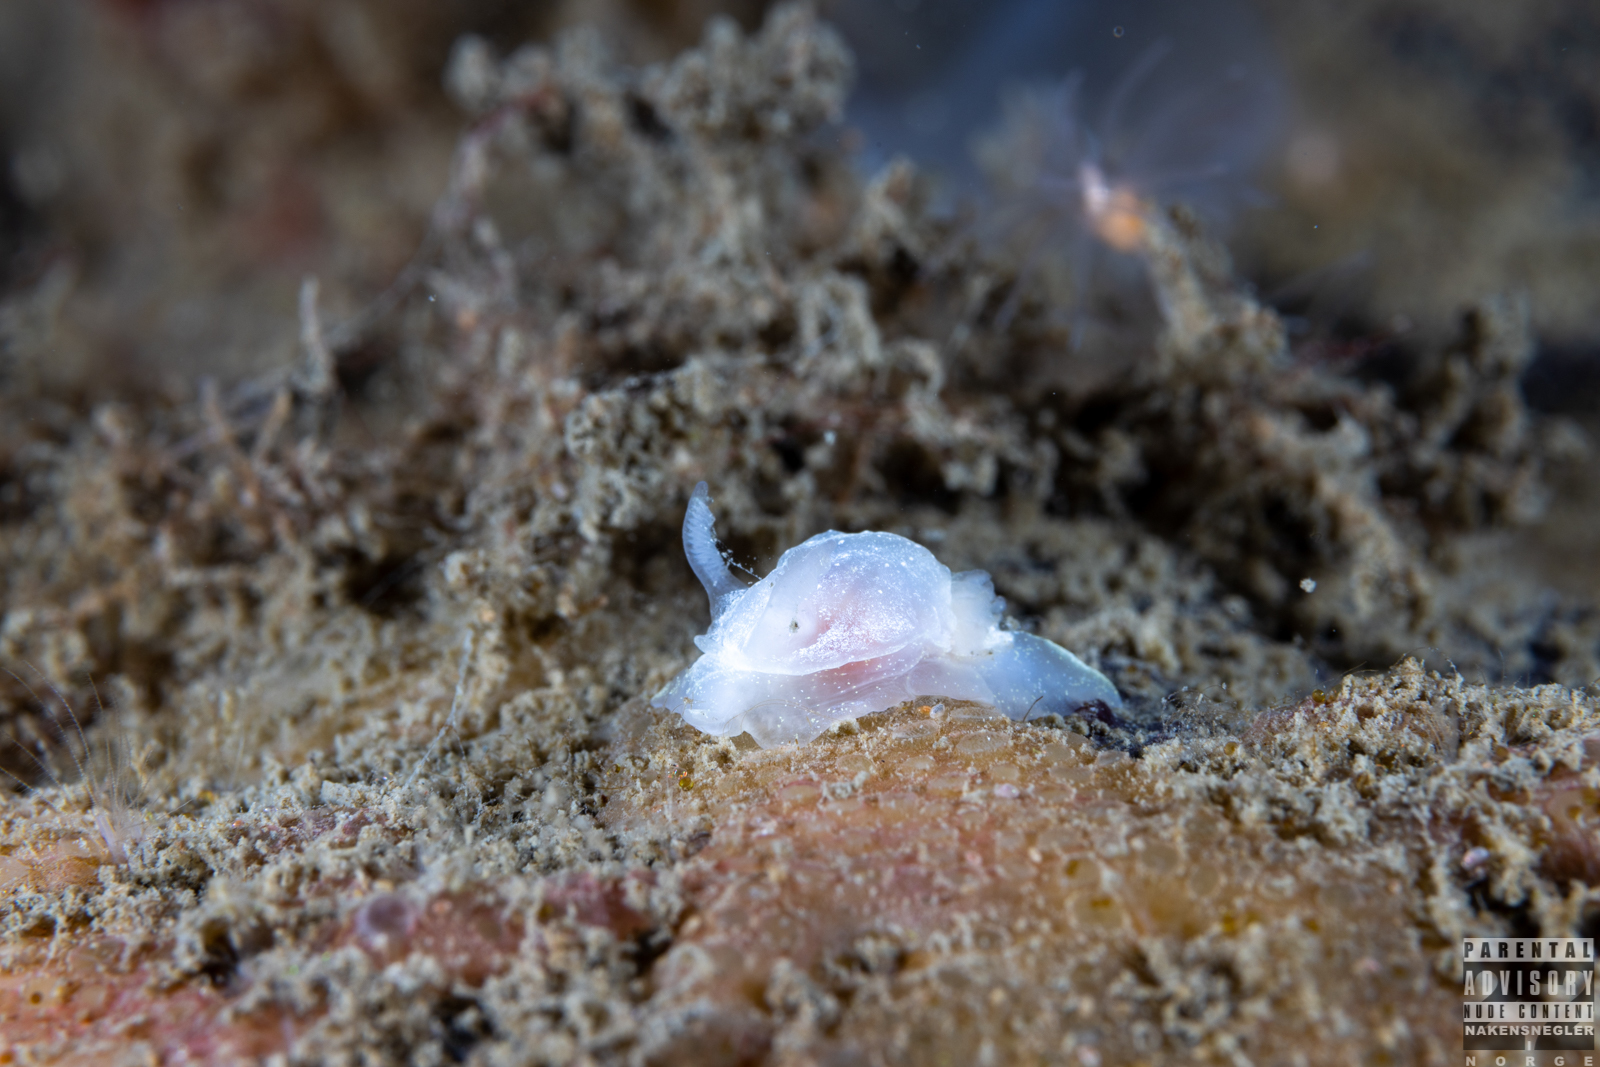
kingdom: Animalia
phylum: Mollusca
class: Gastropoda
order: Nudibranchia
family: Goniodorididae
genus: Okenia
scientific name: Okenia
